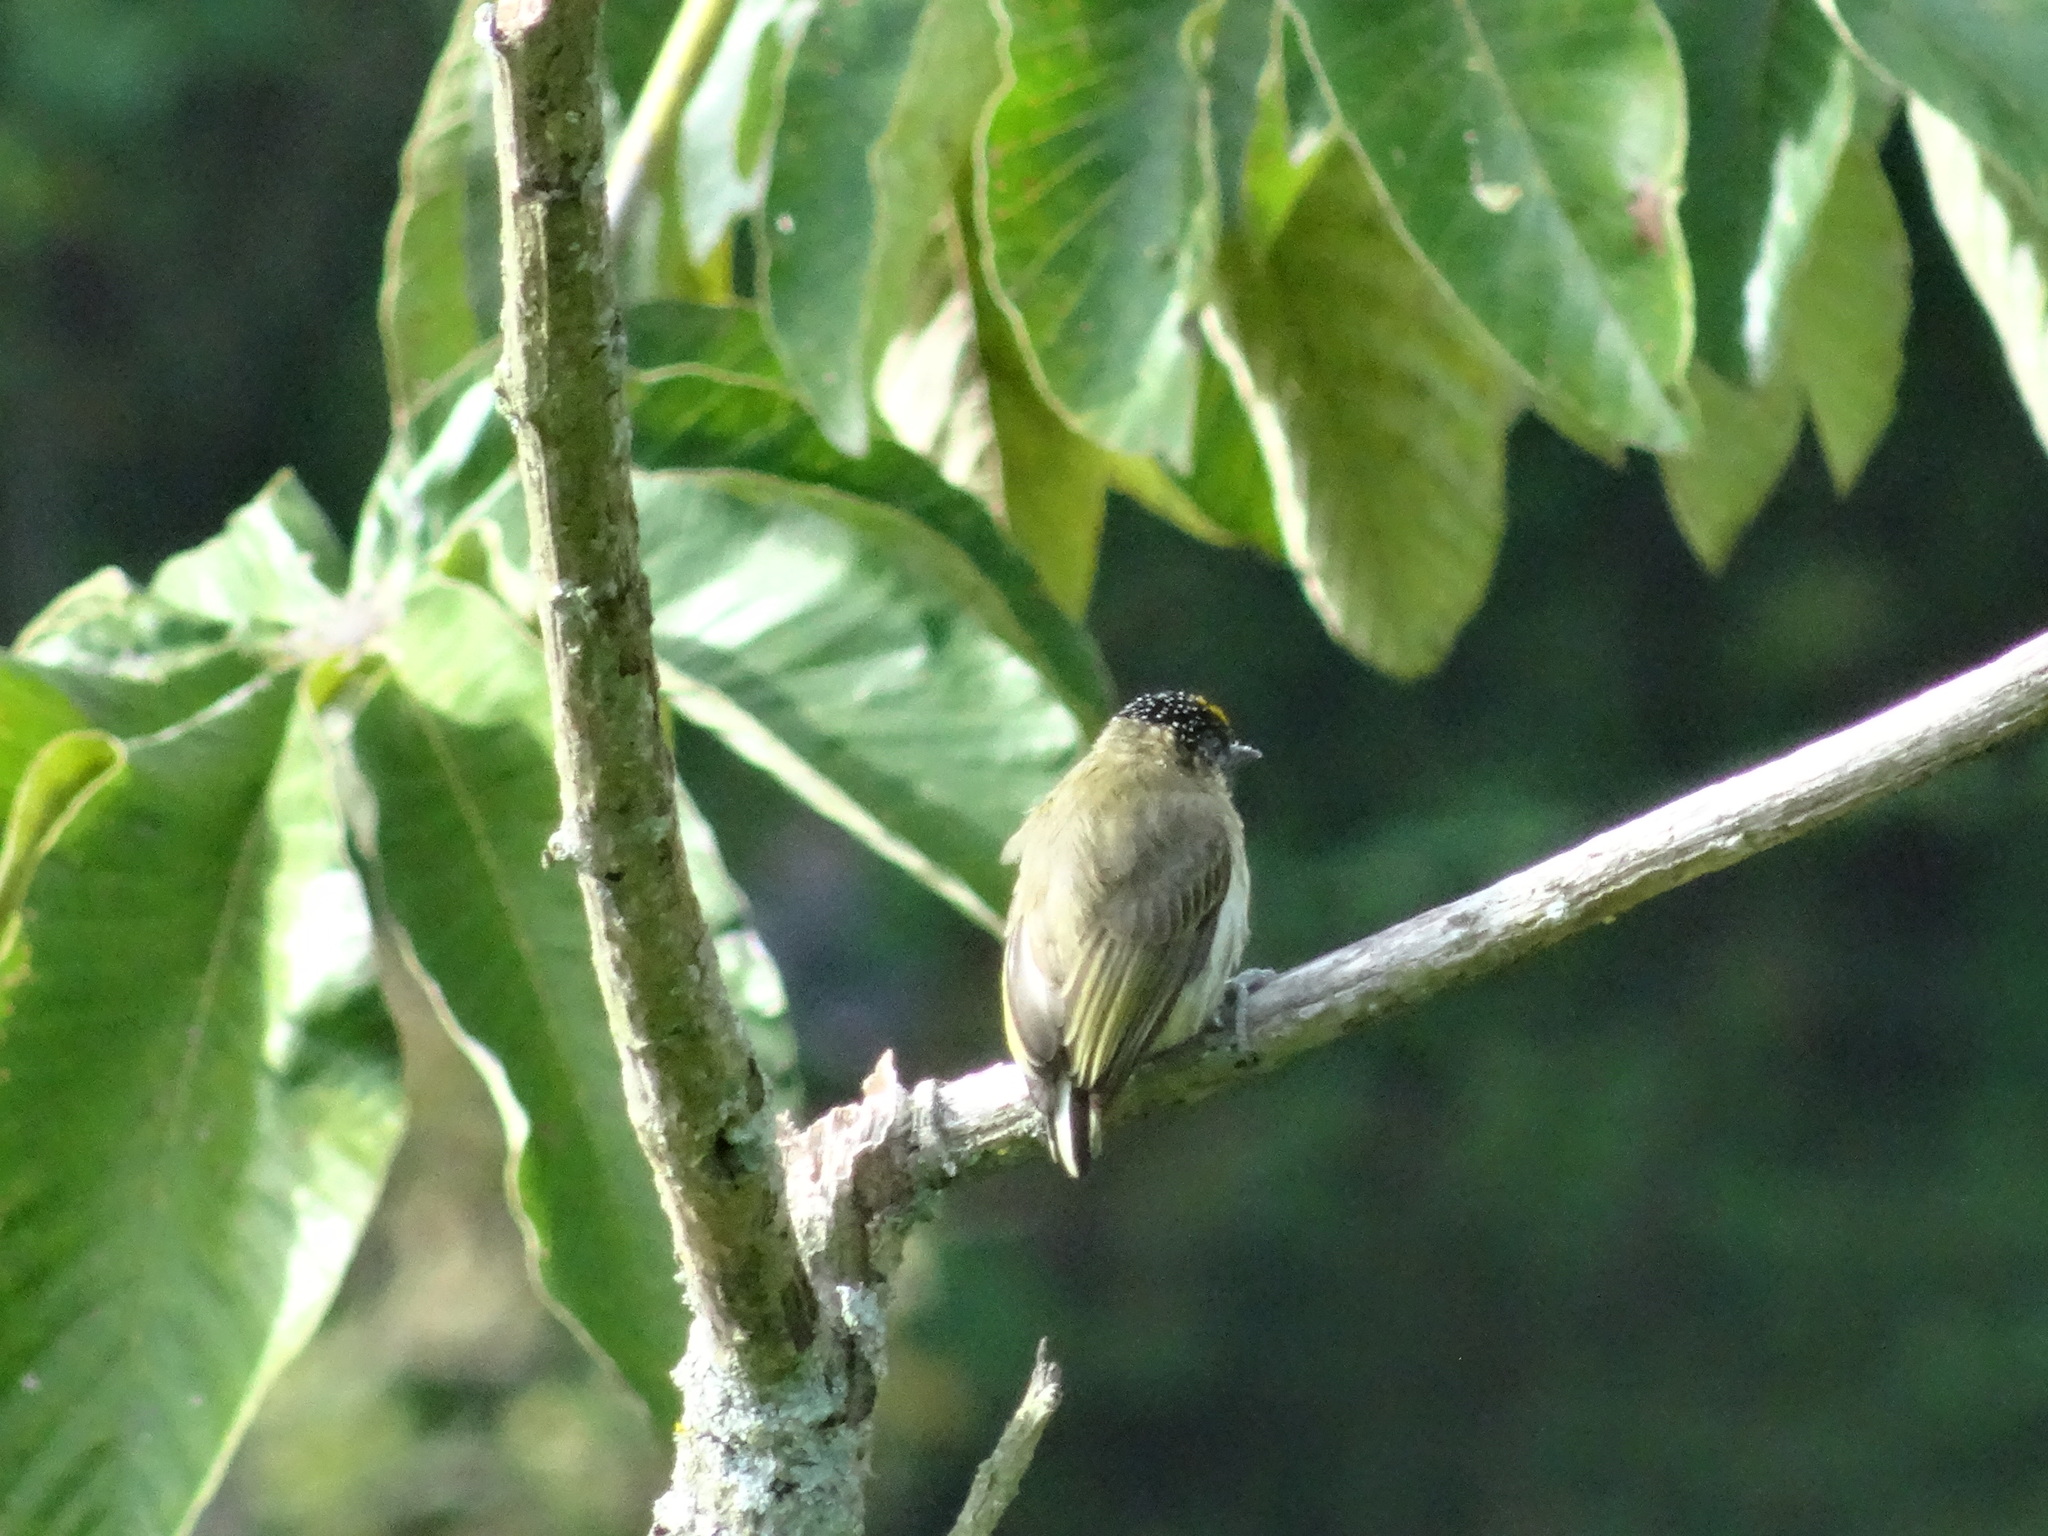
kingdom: Animalia
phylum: Chordata
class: Aves
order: Piciformes
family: Picidae
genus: Picumnus
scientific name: Picumnus granadensis
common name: Greyish piculet
